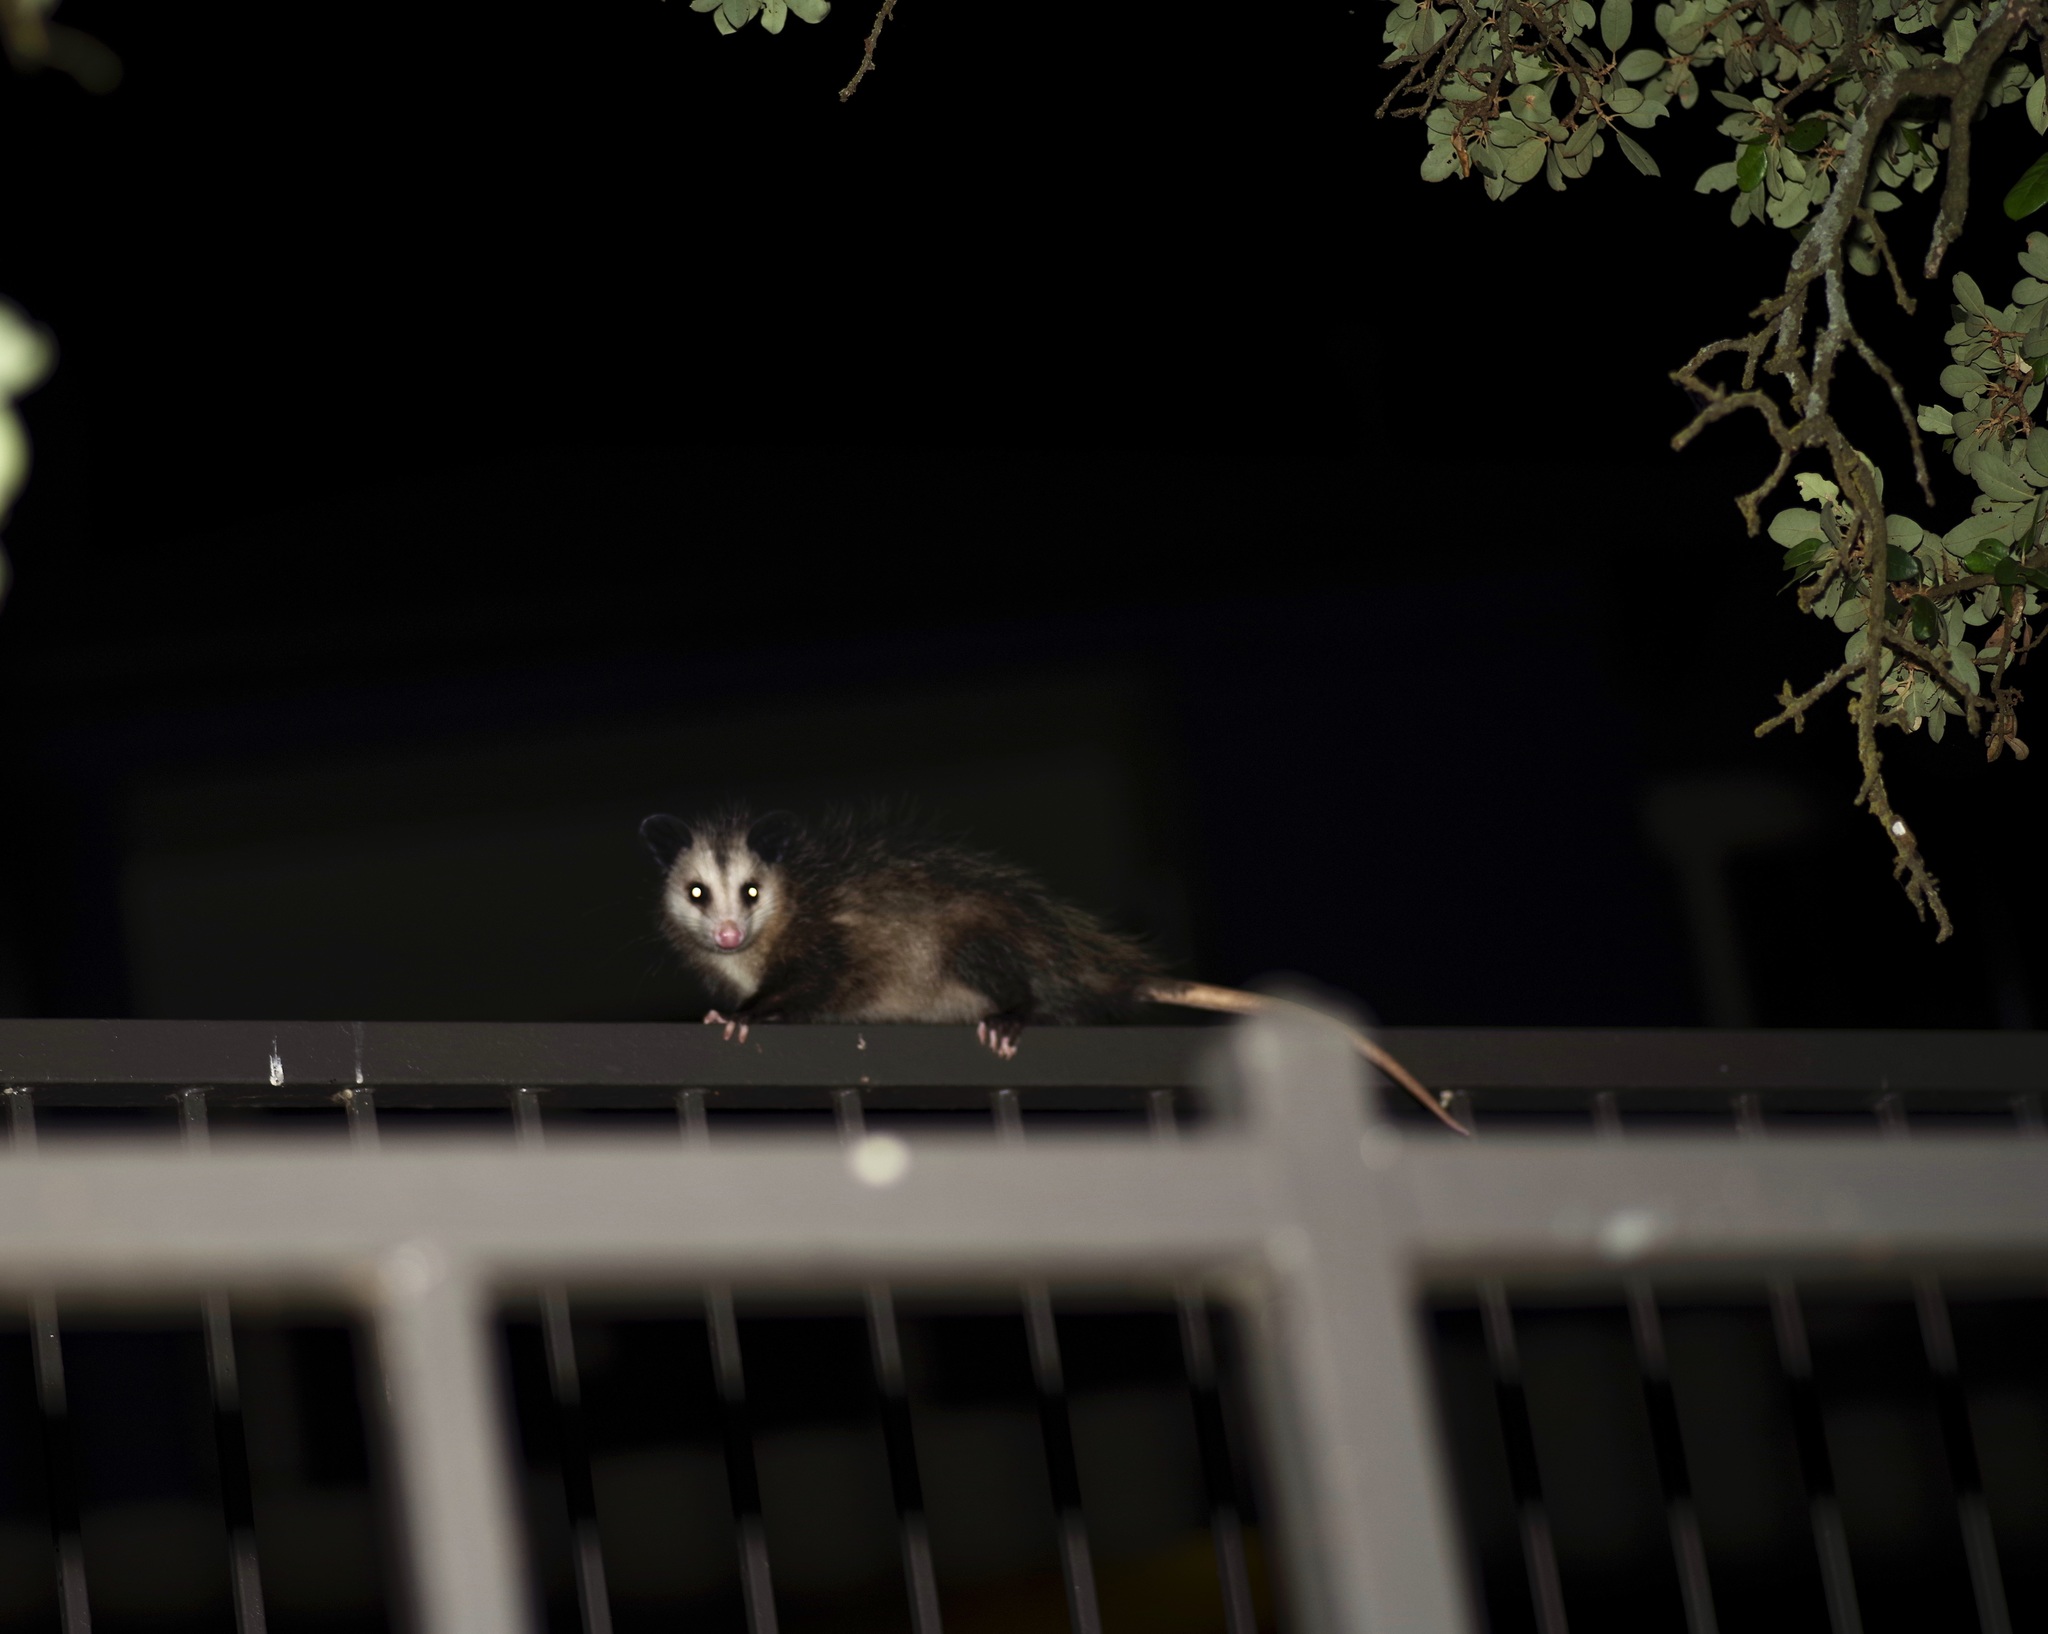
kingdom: Animalia
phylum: Chordata
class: Mammalia
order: Didelphimorphia
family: Didelphidae
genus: Didelphis
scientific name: Didelphis virginiana
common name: Virginia opossum
